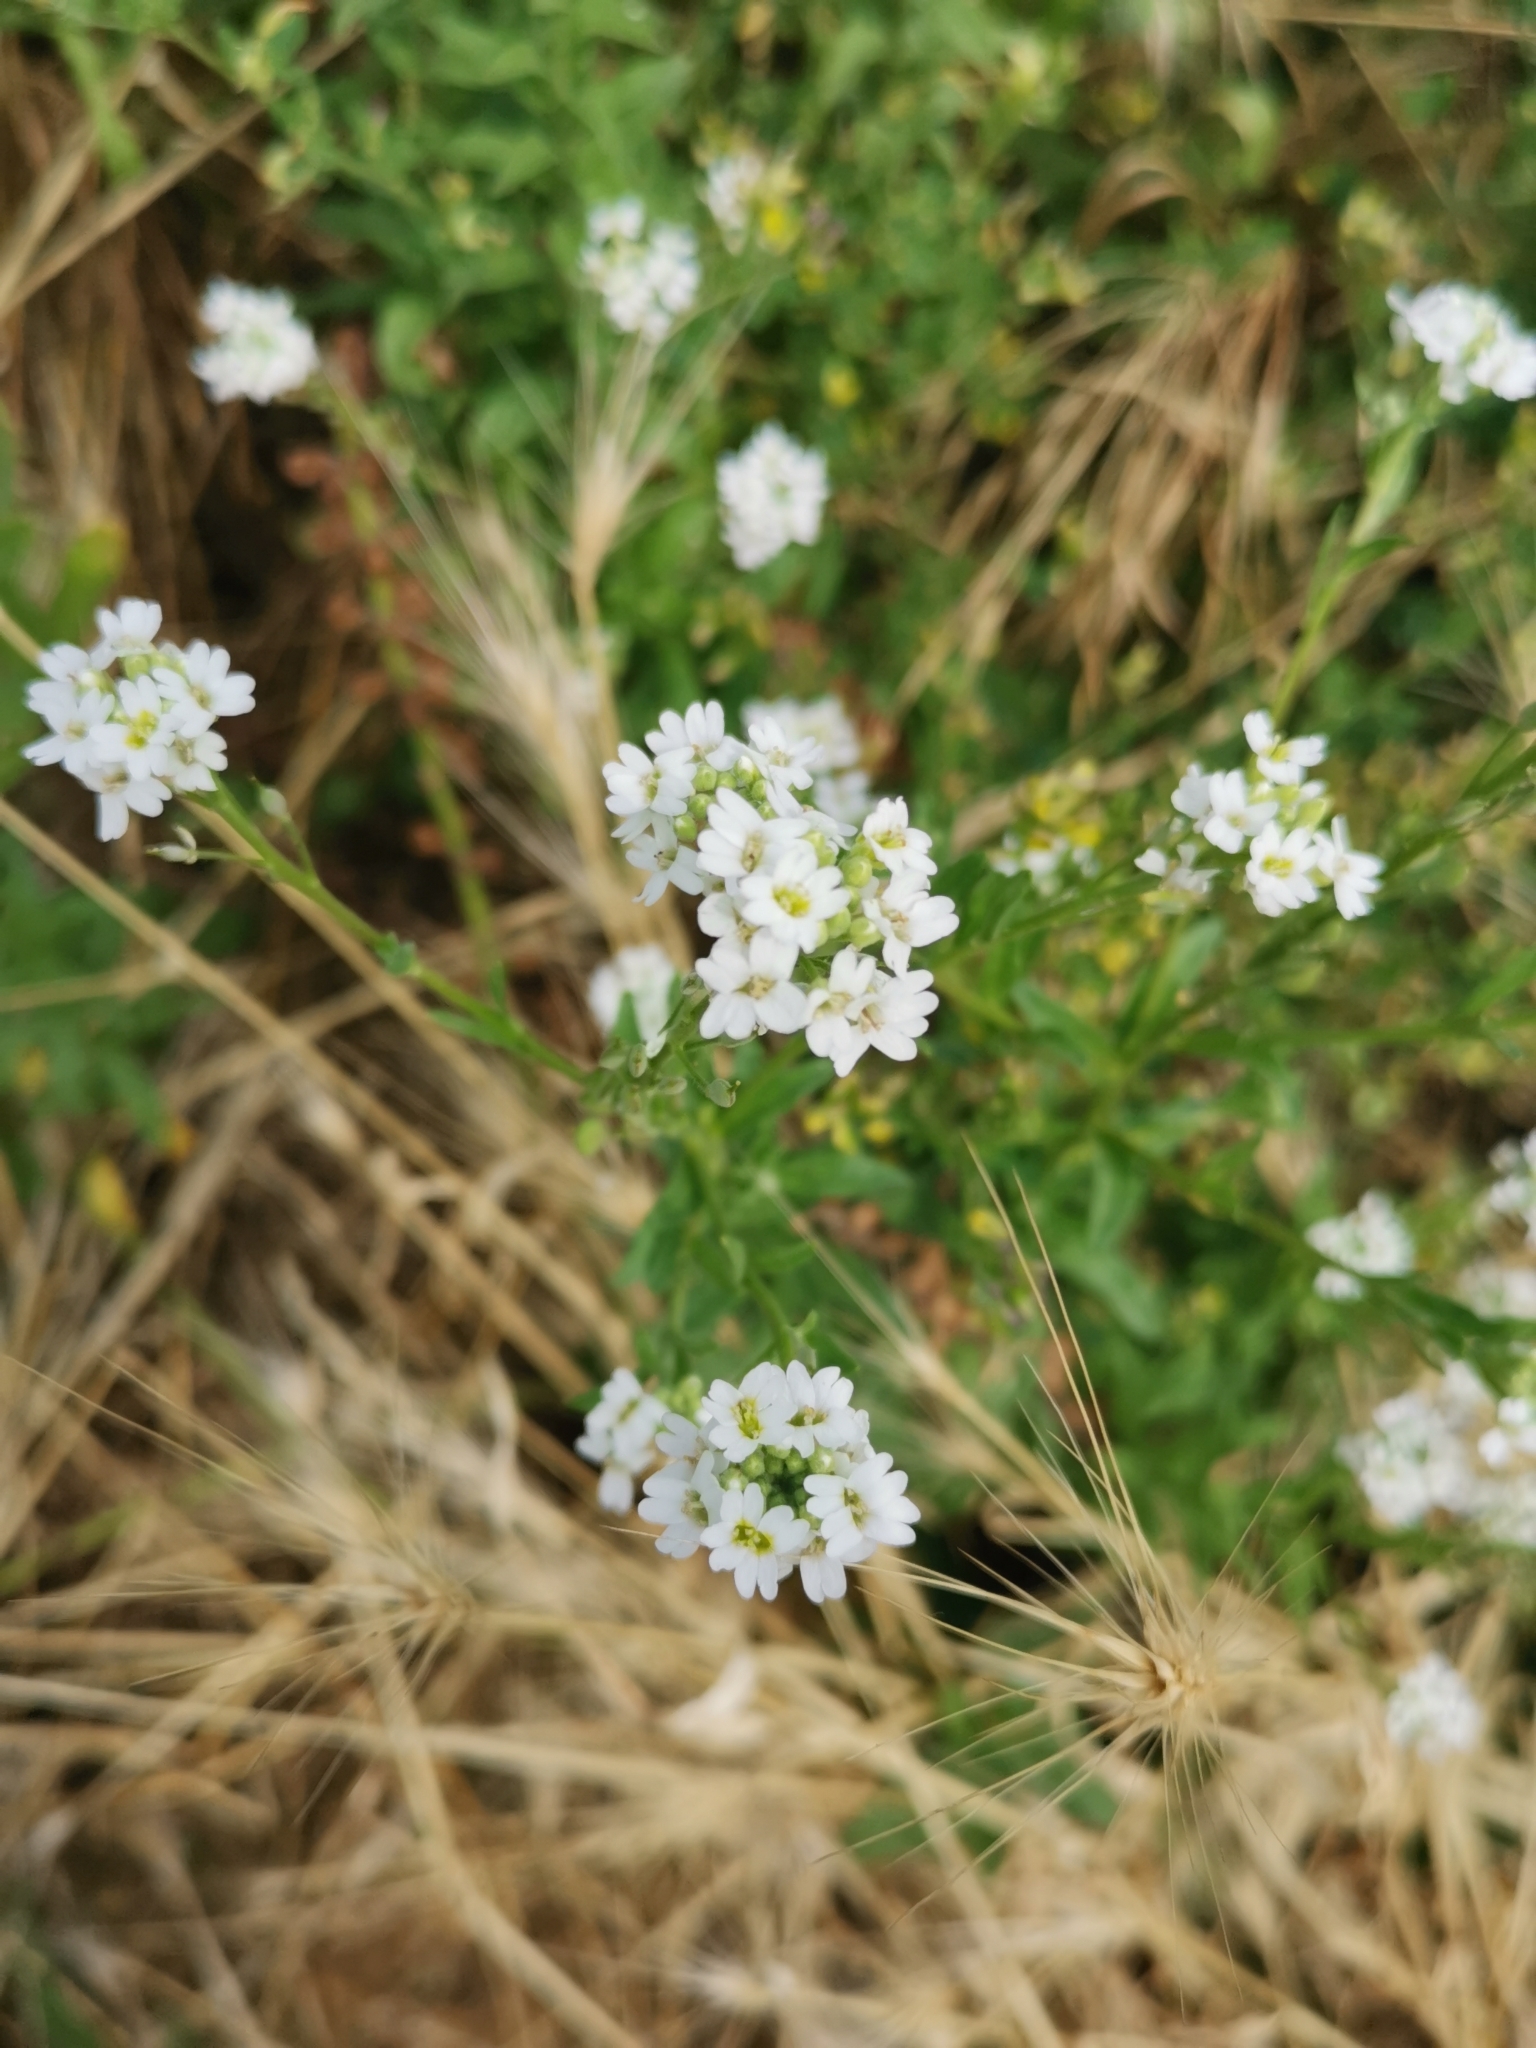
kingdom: Plantae
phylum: Tracheophyta
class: Magnoliopsida
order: Brassicales
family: Brassicaceae
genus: Berteroa
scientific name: Berteroa incana
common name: Hoary alison
